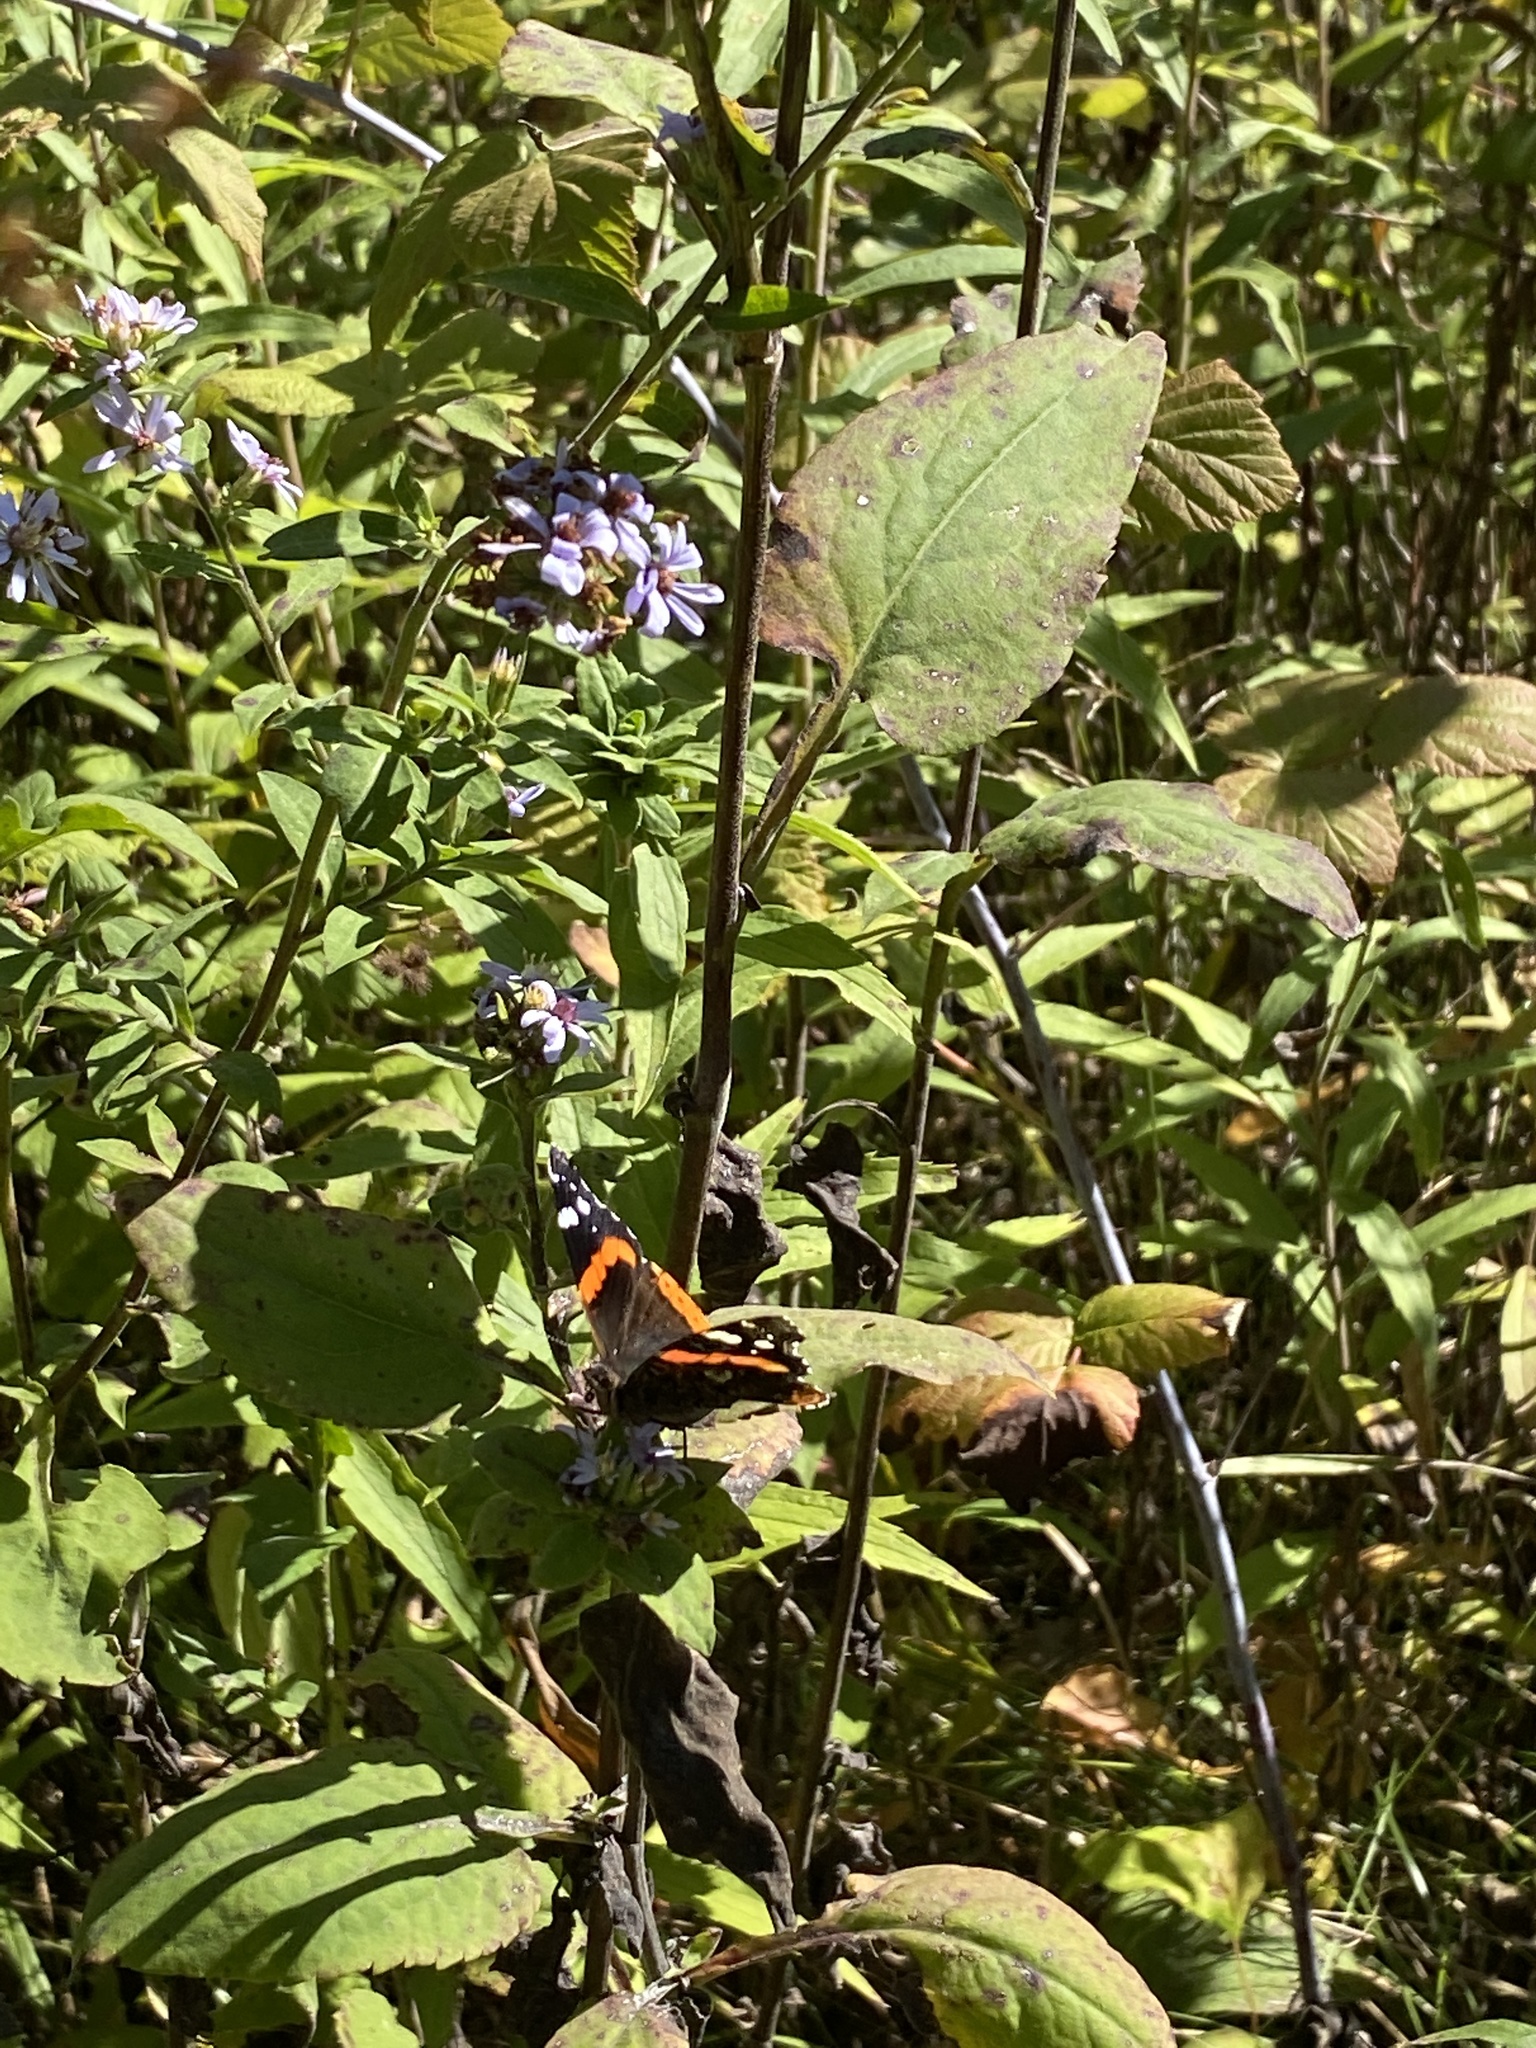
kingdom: Animalia
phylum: Arthropoda
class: Insecta
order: Lepidoptera
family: Nymphalidae
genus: Vanessa
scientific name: Vanessa atalanta
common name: Red admiral
